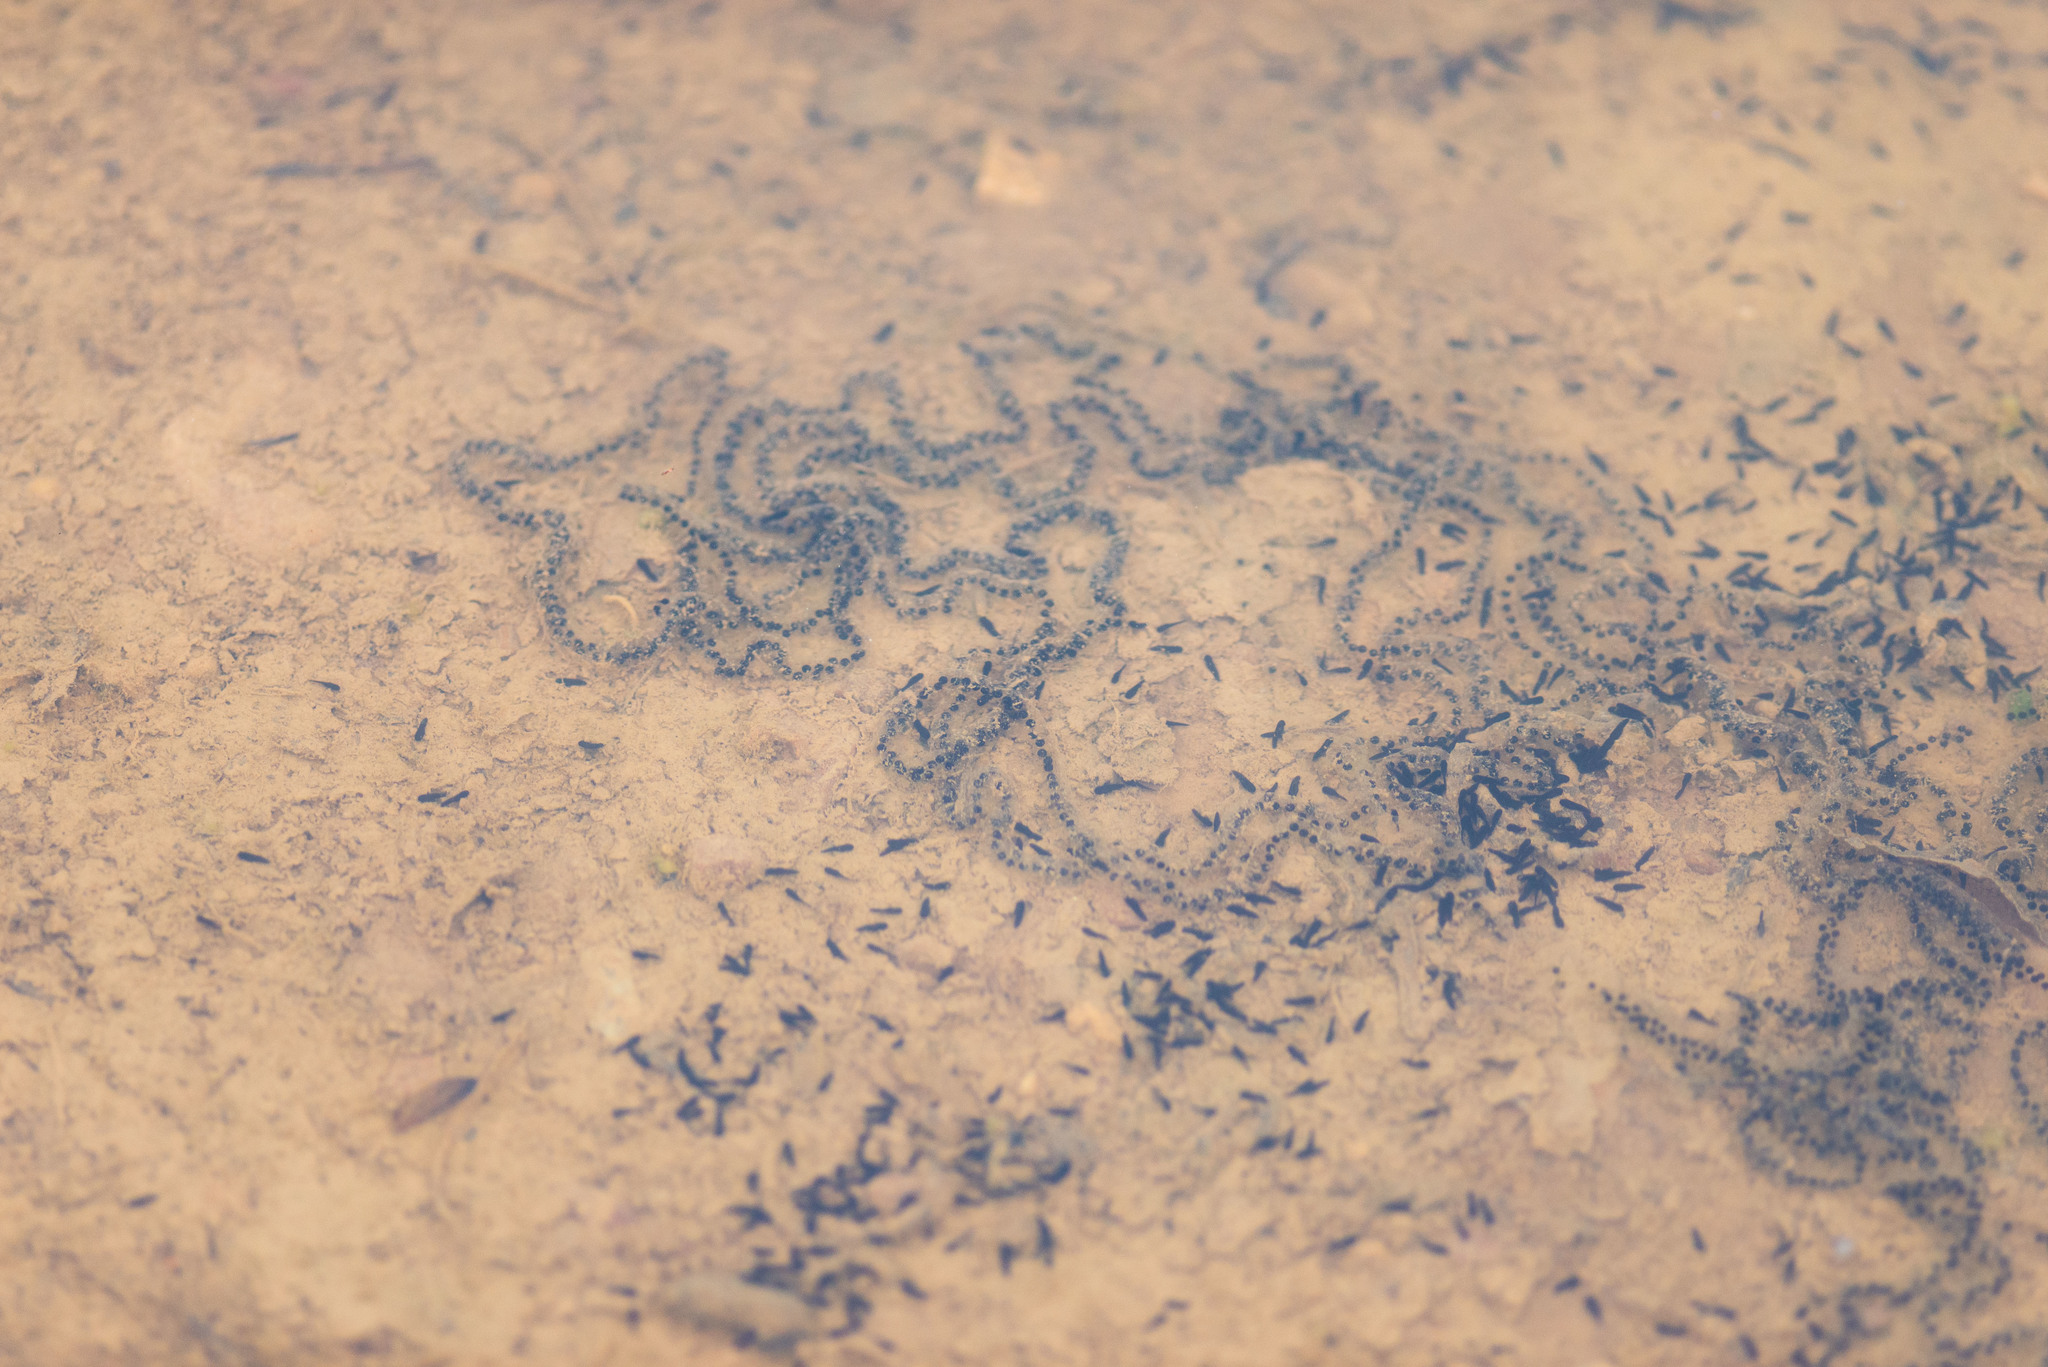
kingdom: Animalia
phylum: Chordata
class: Amphibia
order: Anura
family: Bufonidae
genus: Epidalea
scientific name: Epidalea calamita
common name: Natterjack toad
